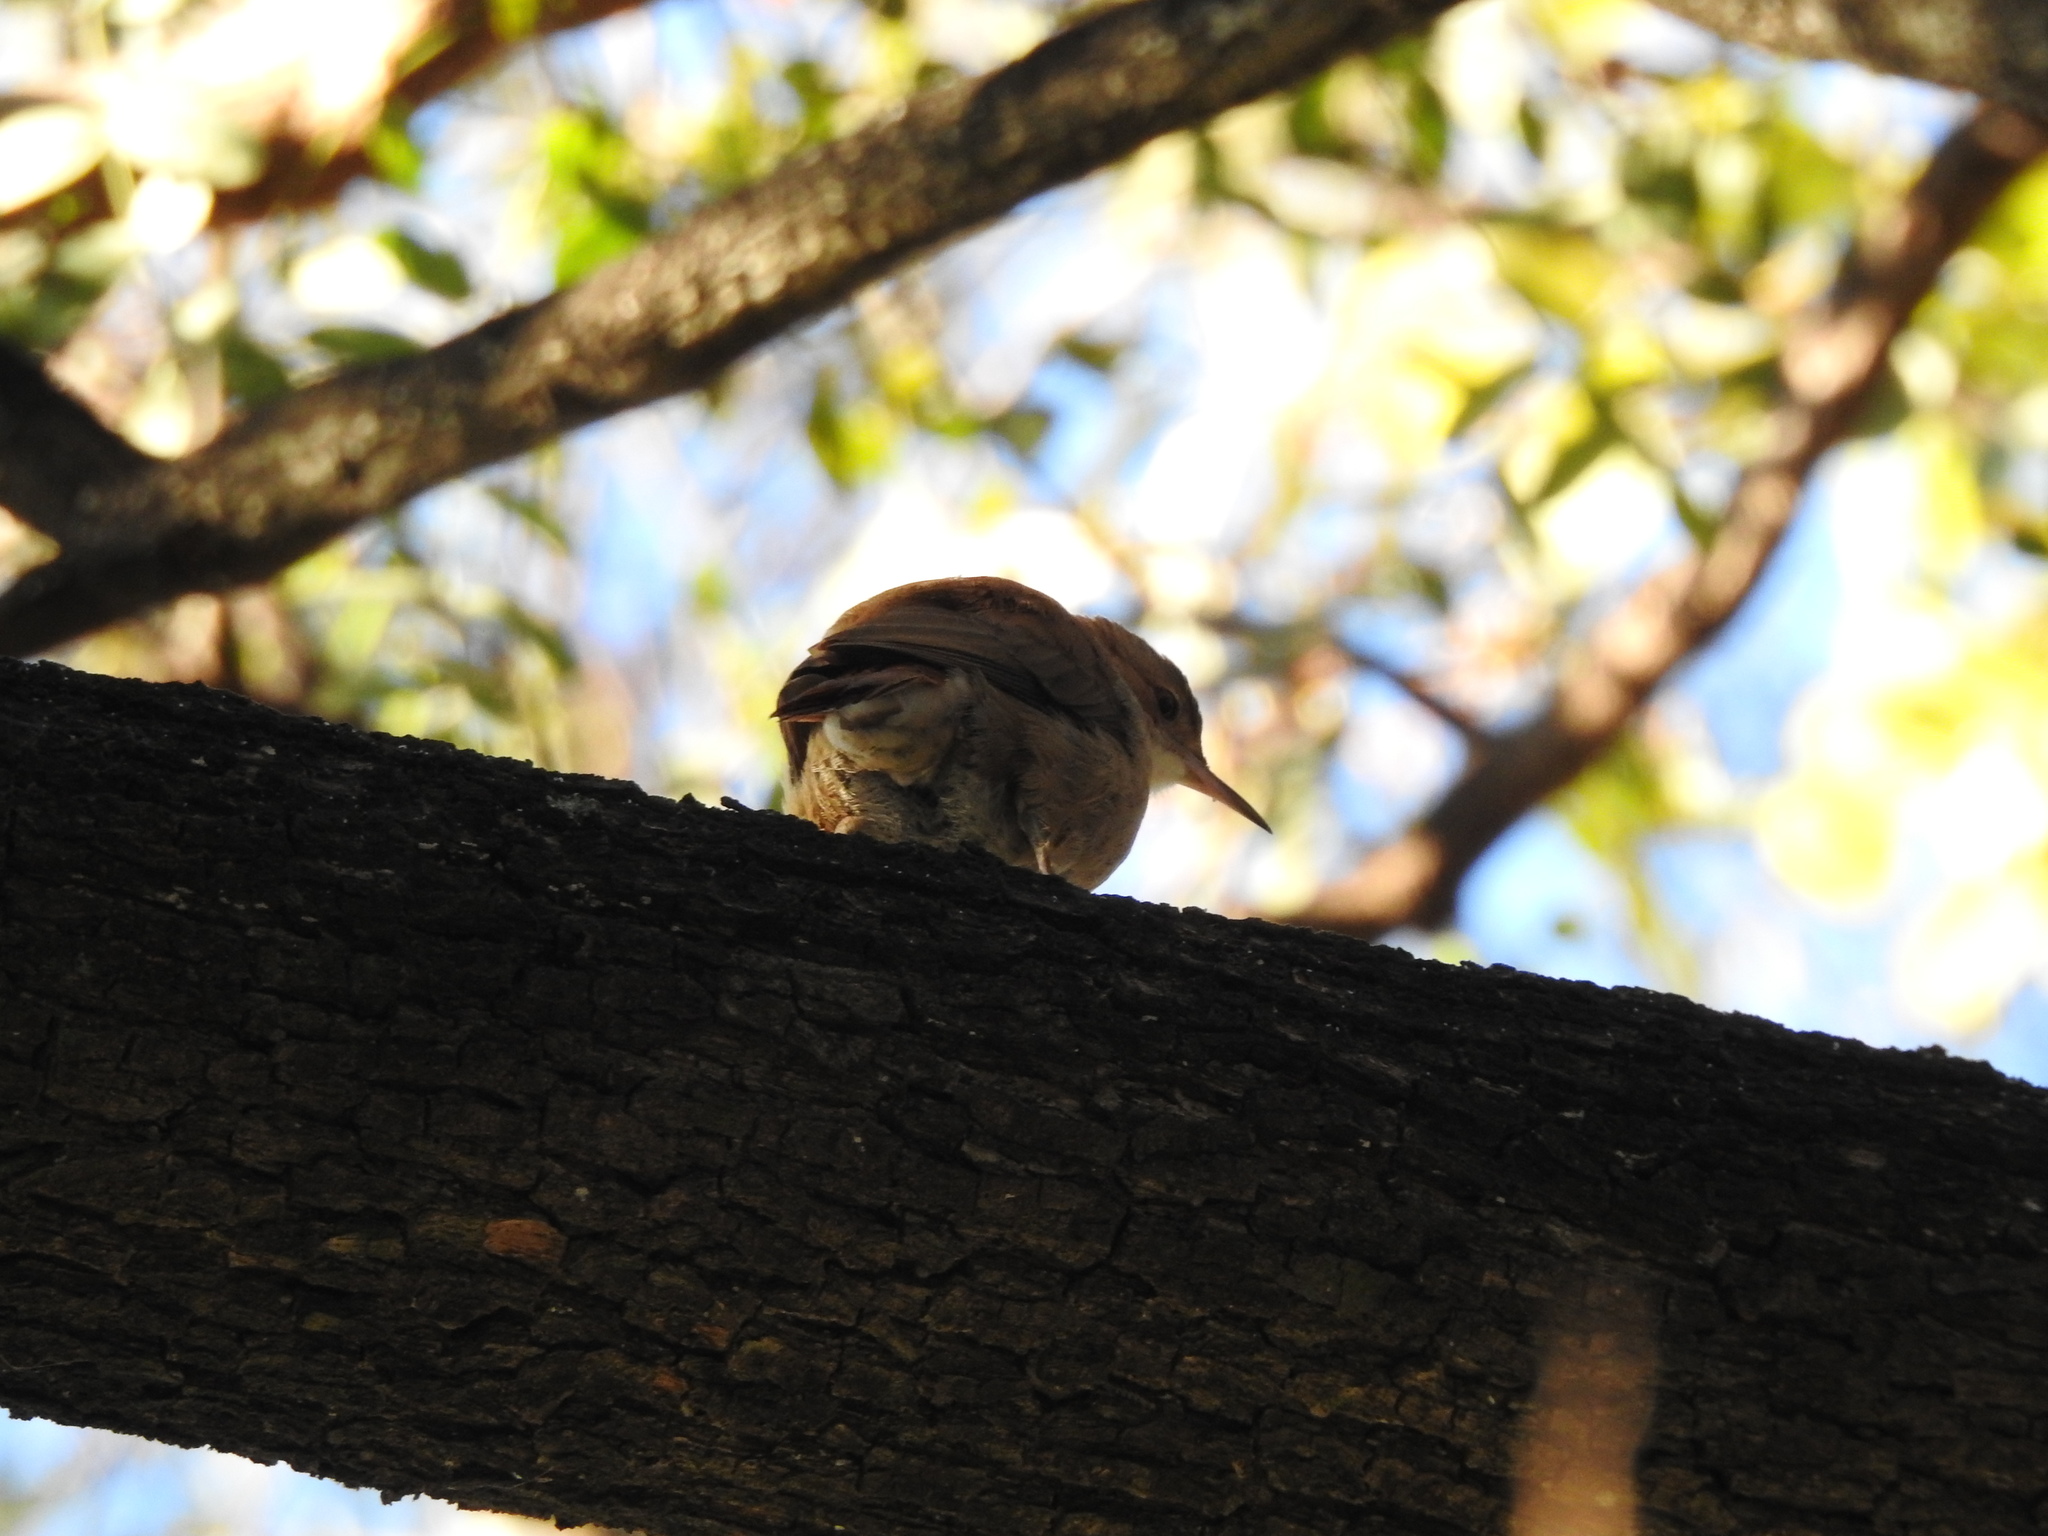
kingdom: Animalia
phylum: Chordata
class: Aves
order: Passeriformes
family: Furnariidae
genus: Furnarius
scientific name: Furnarius rufus
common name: Rufous hornero
